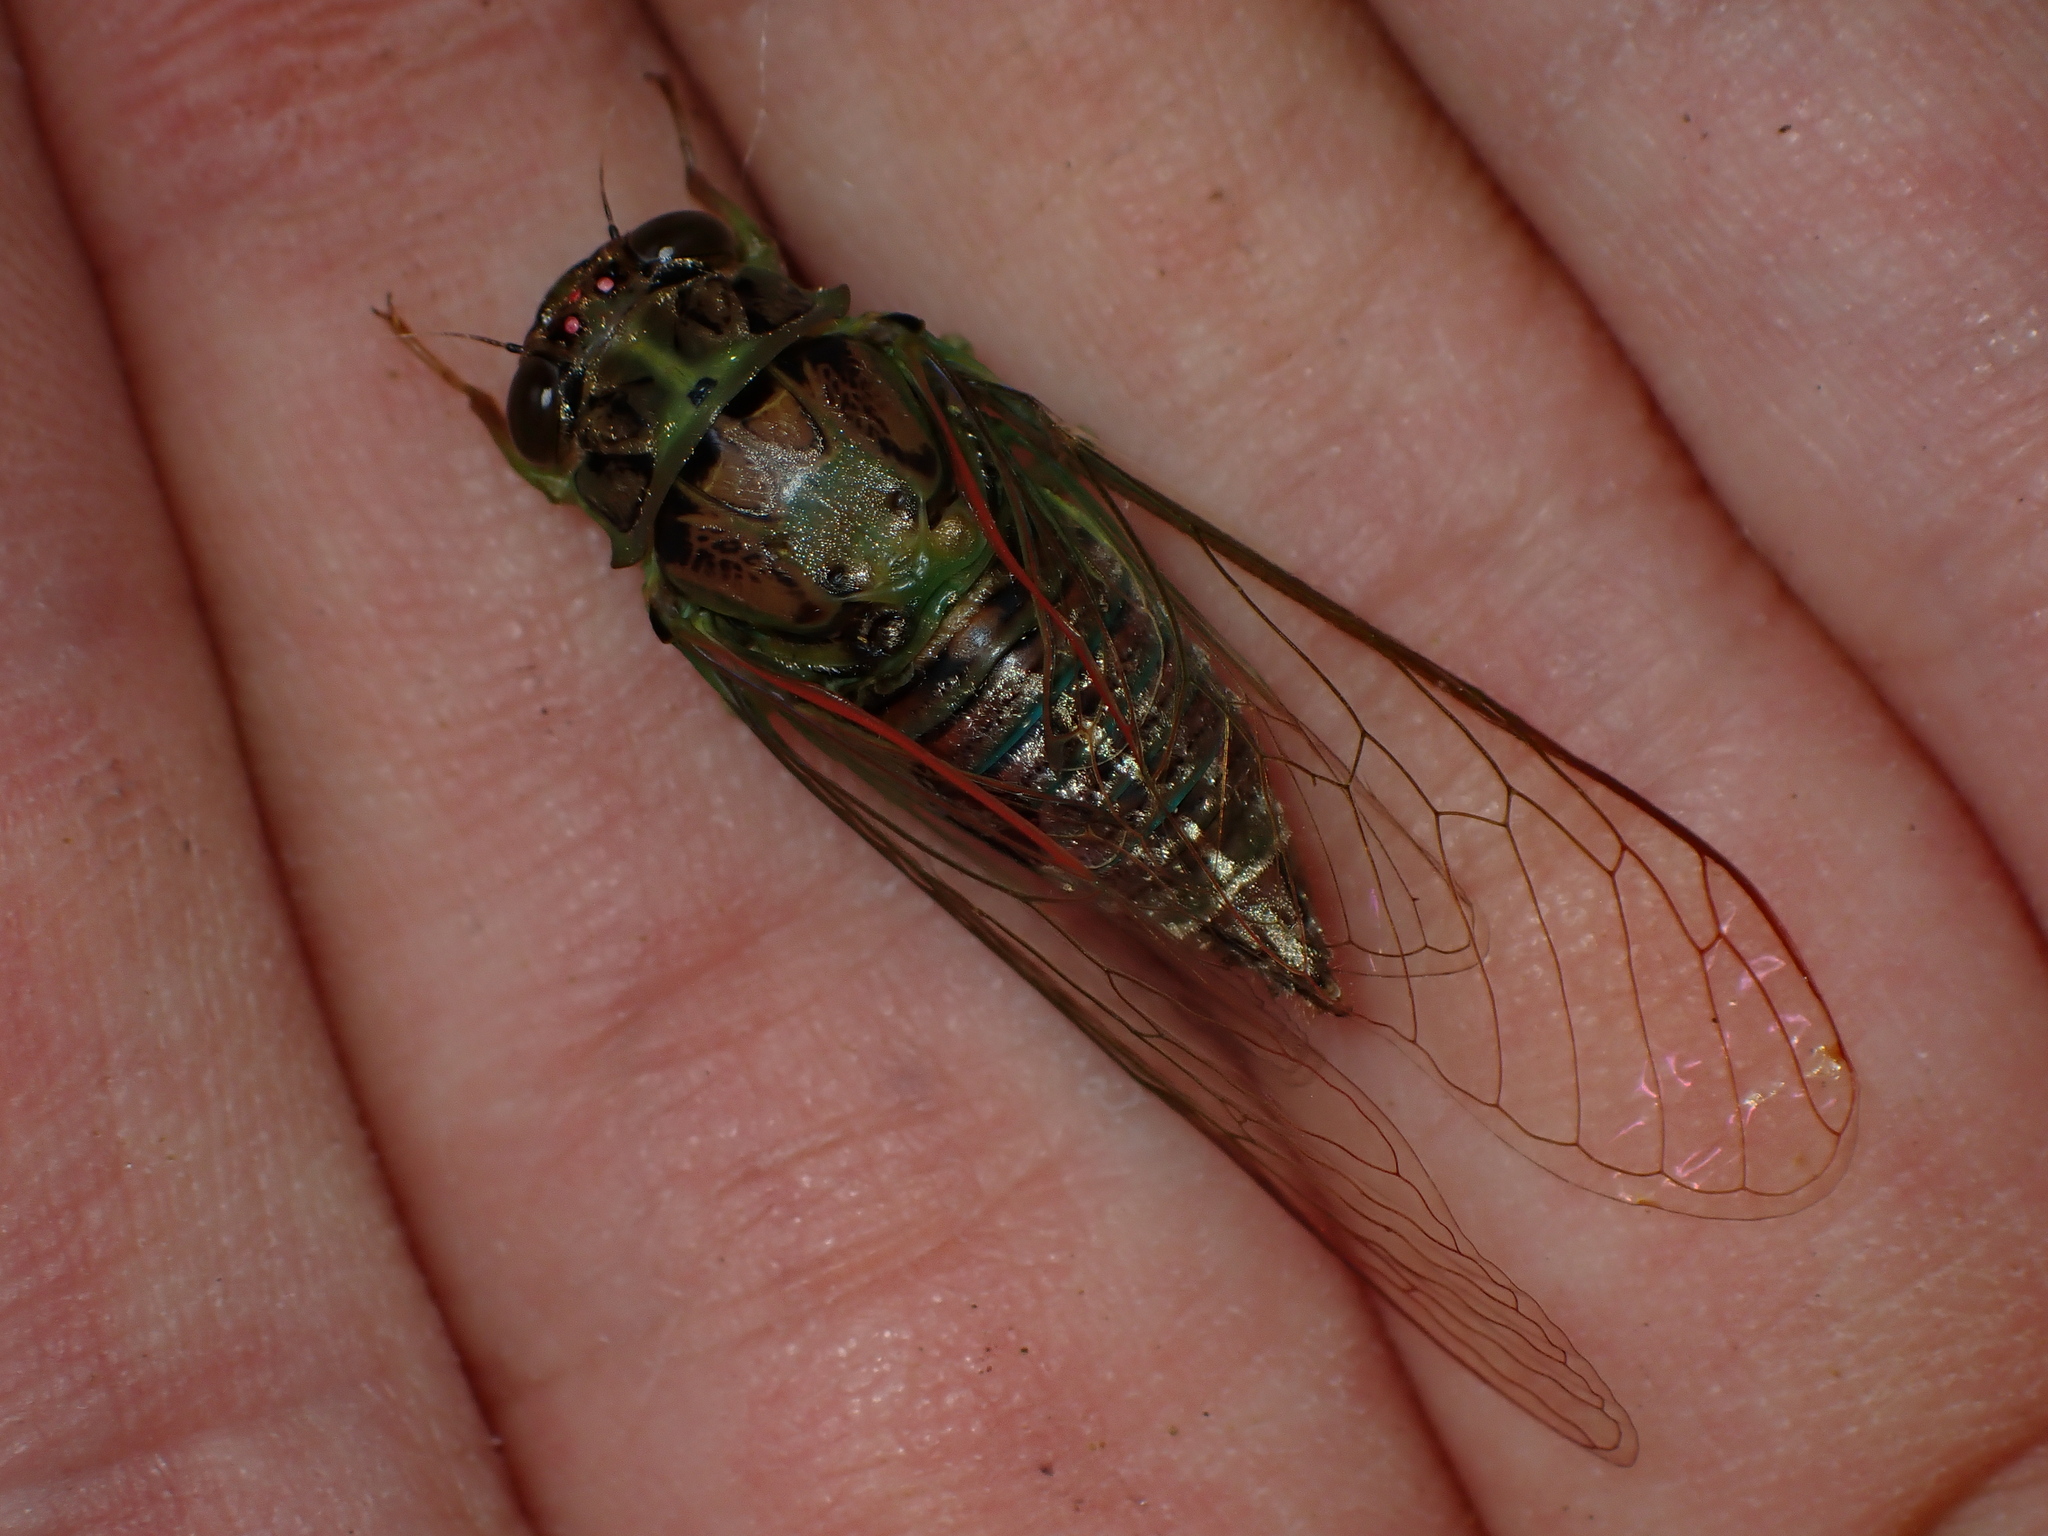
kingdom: Animalia
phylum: Arthropoda
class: Insecta
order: Hemiptera
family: Cicadidae
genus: Kikihia
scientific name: Kikihia scutellaris
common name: Lesser bronze cicada
